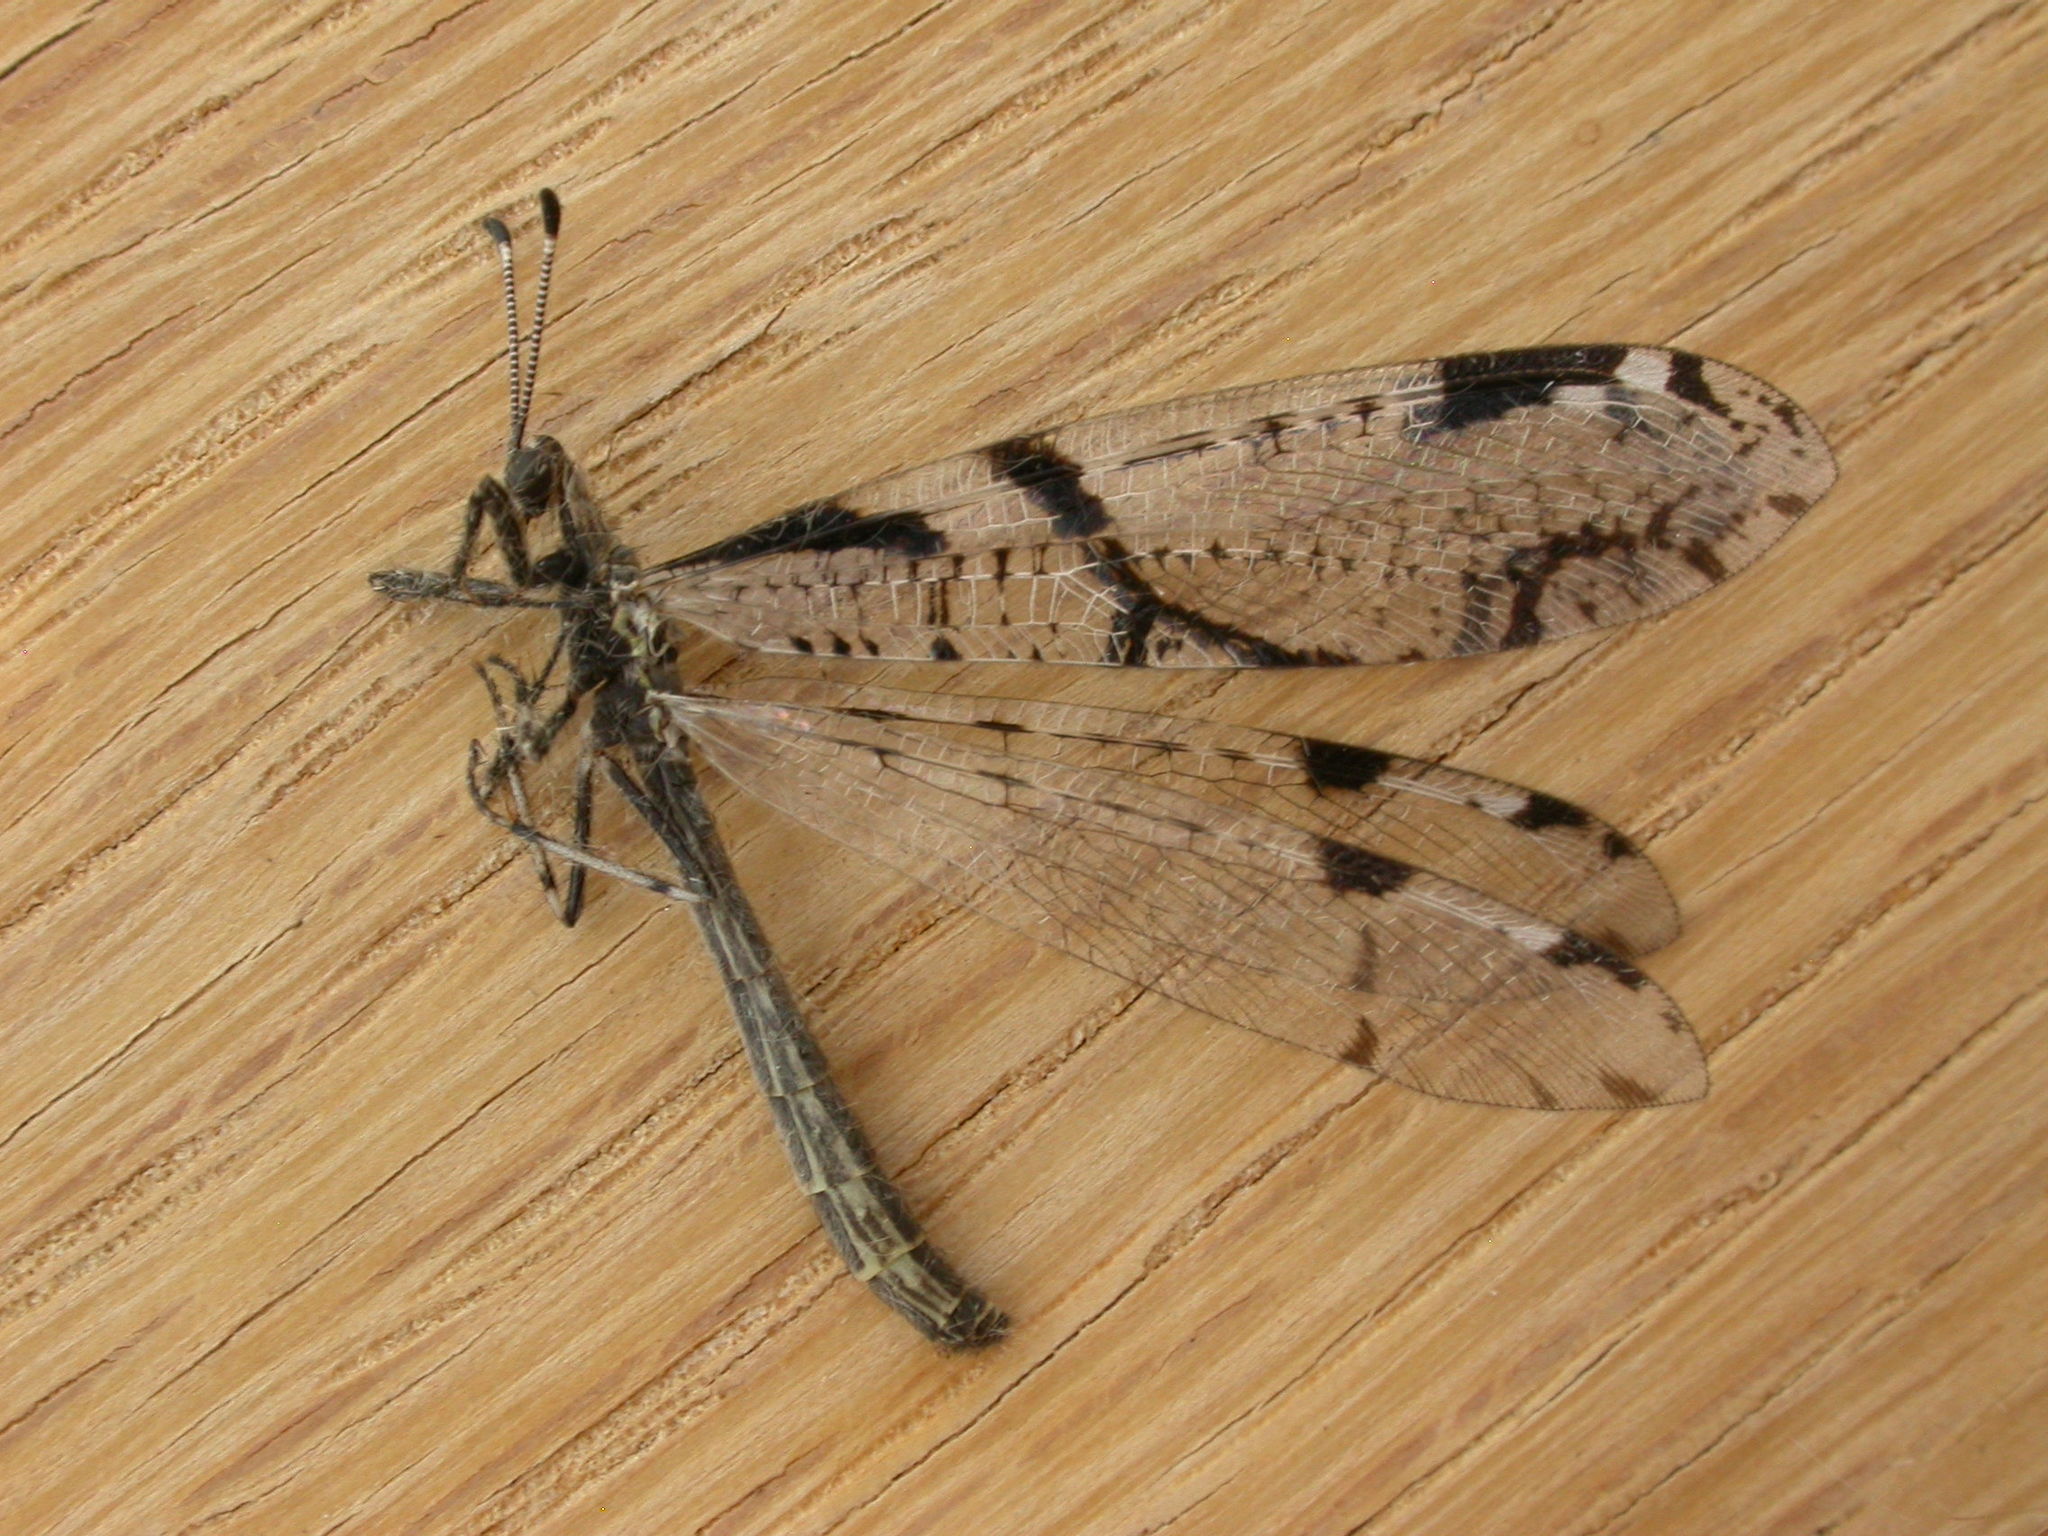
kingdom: Animalia
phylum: Arthropoda
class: Insecta
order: Neuroptera
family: Myrmeleontidae
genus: Dendroleon
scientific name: Dendroleon amabilis
